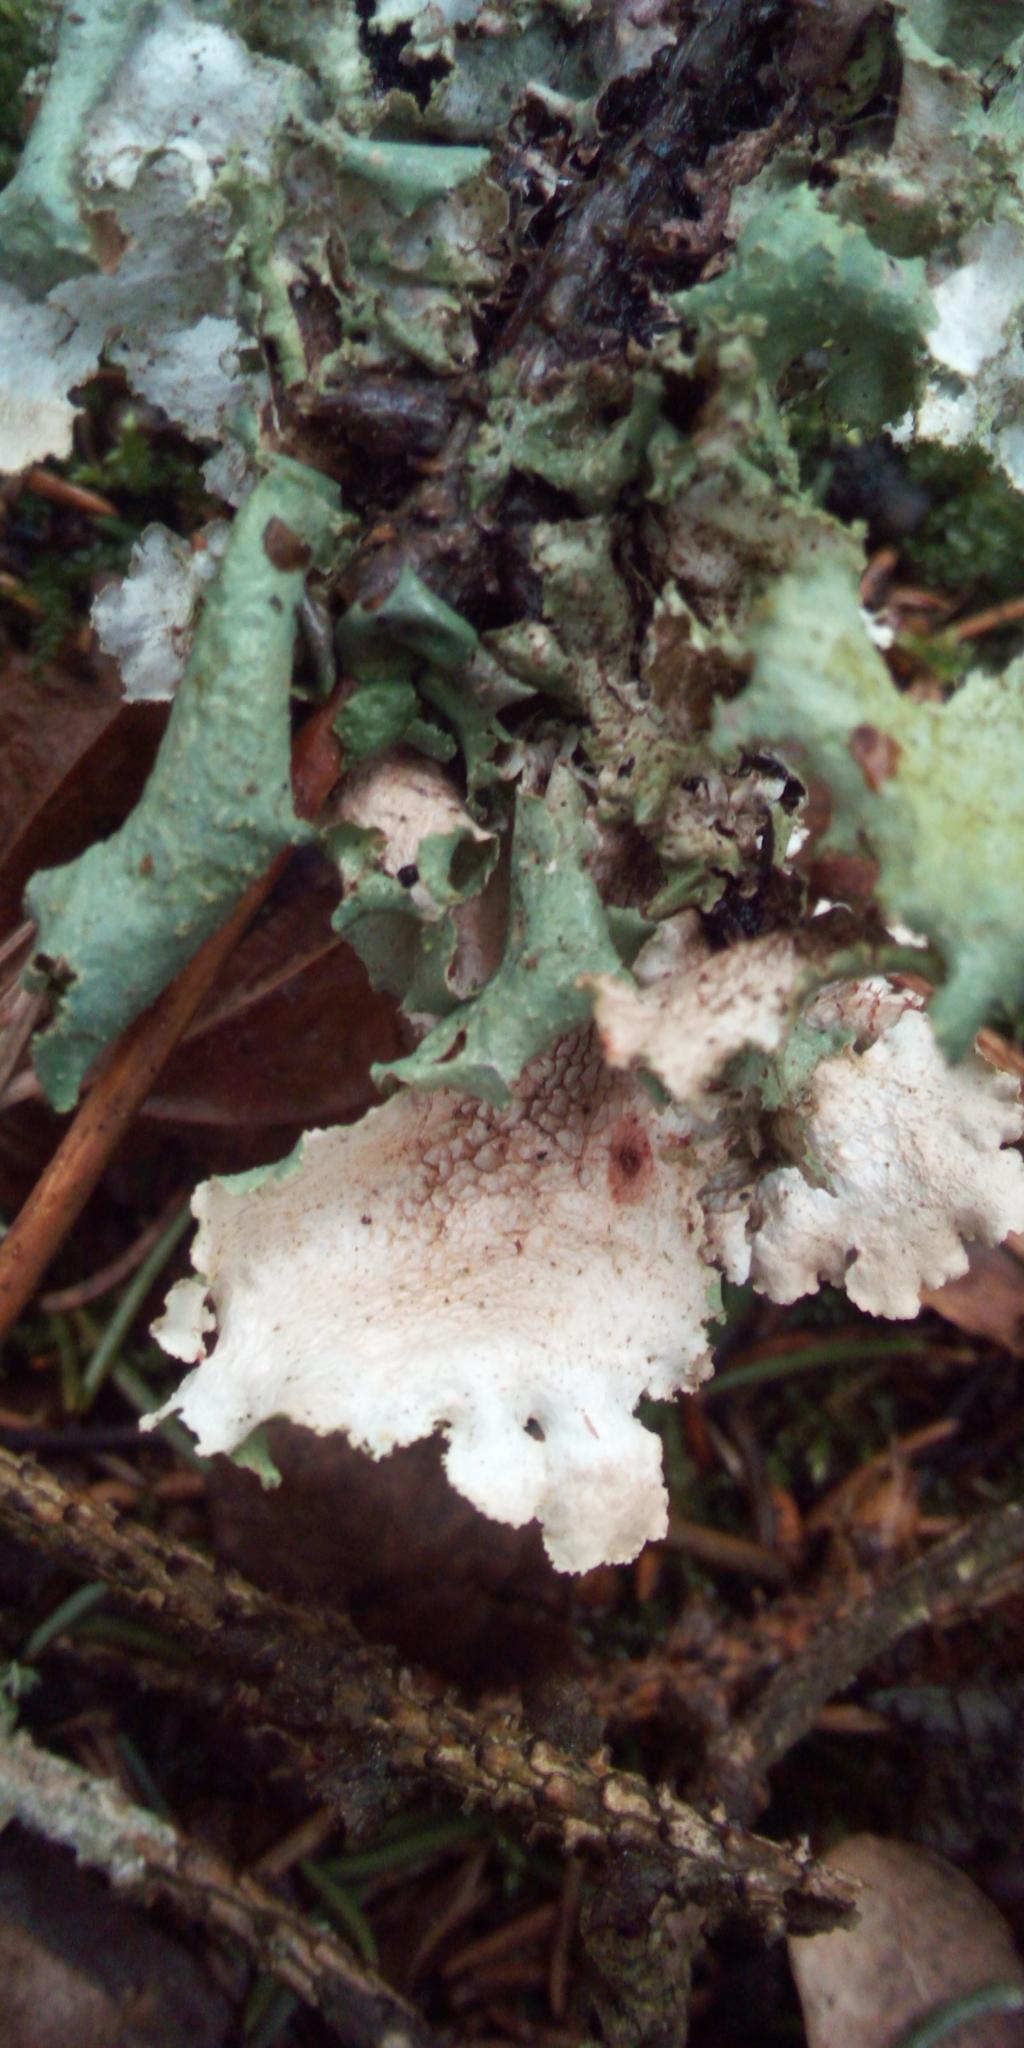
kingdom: Fungi
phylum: Ascomycota
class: Lecanoromycetes
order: Lecanorales
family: Parmeliaceae
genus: Platismatia
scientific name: Platismatia glauca
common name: Varied rag lichen
